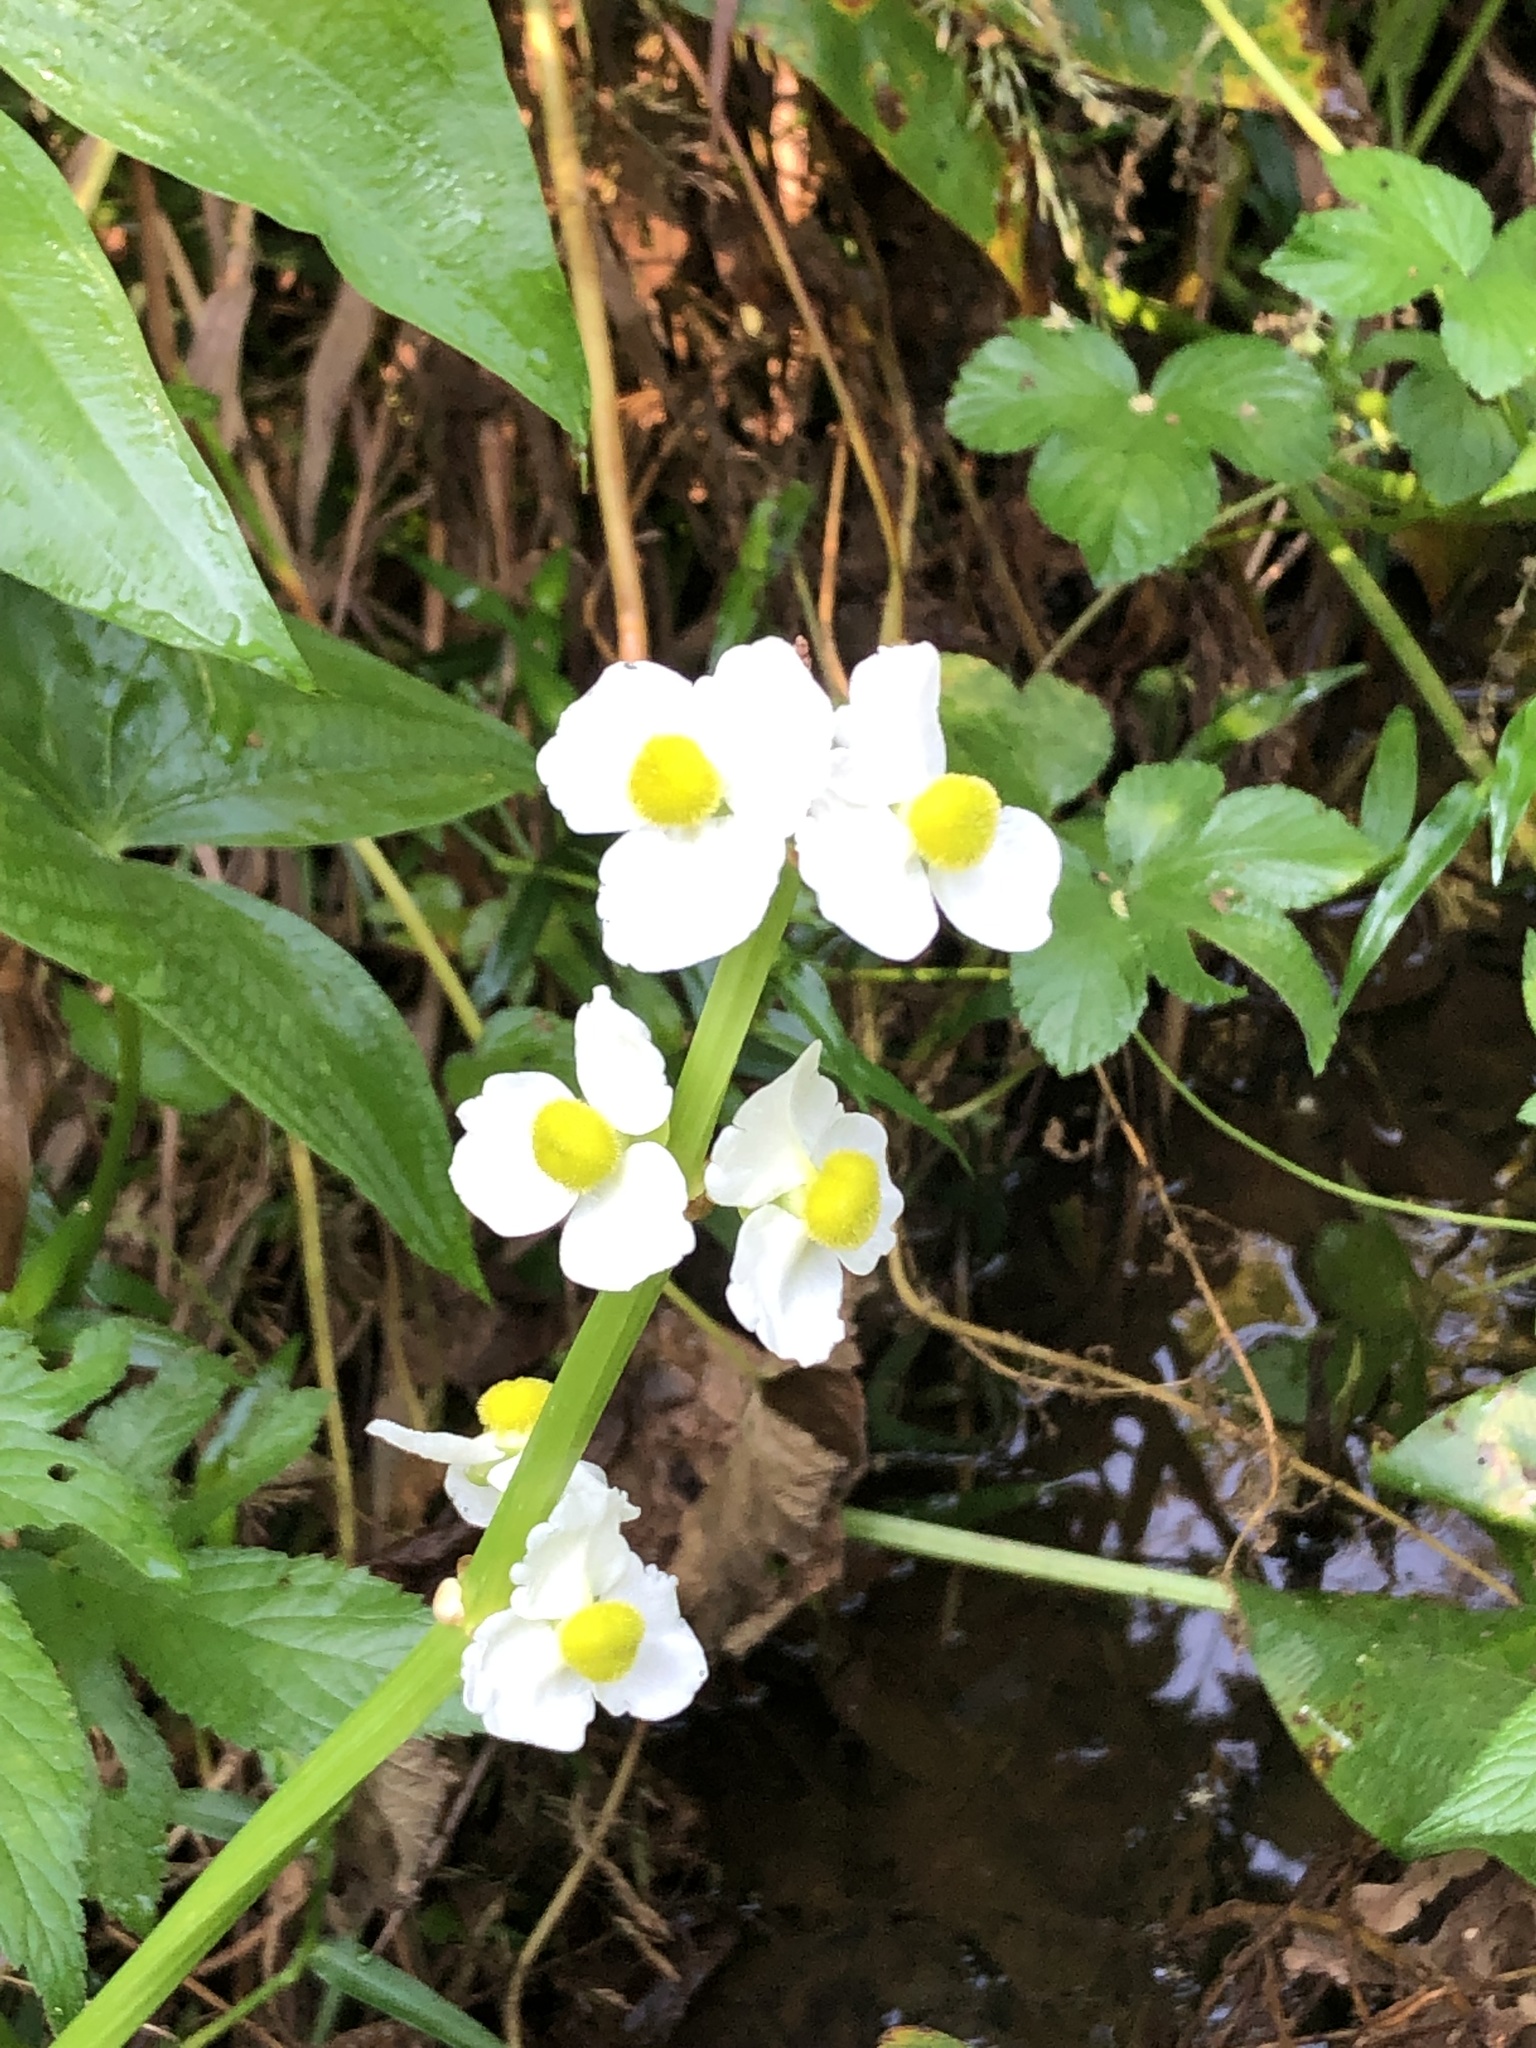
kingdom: Plantae
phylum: Tracheophyta
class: Liliopsida
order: Alismatales
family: Alismataceae
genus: Sagittaria
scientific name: Sagittaria latifolia
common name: Duck-potato
